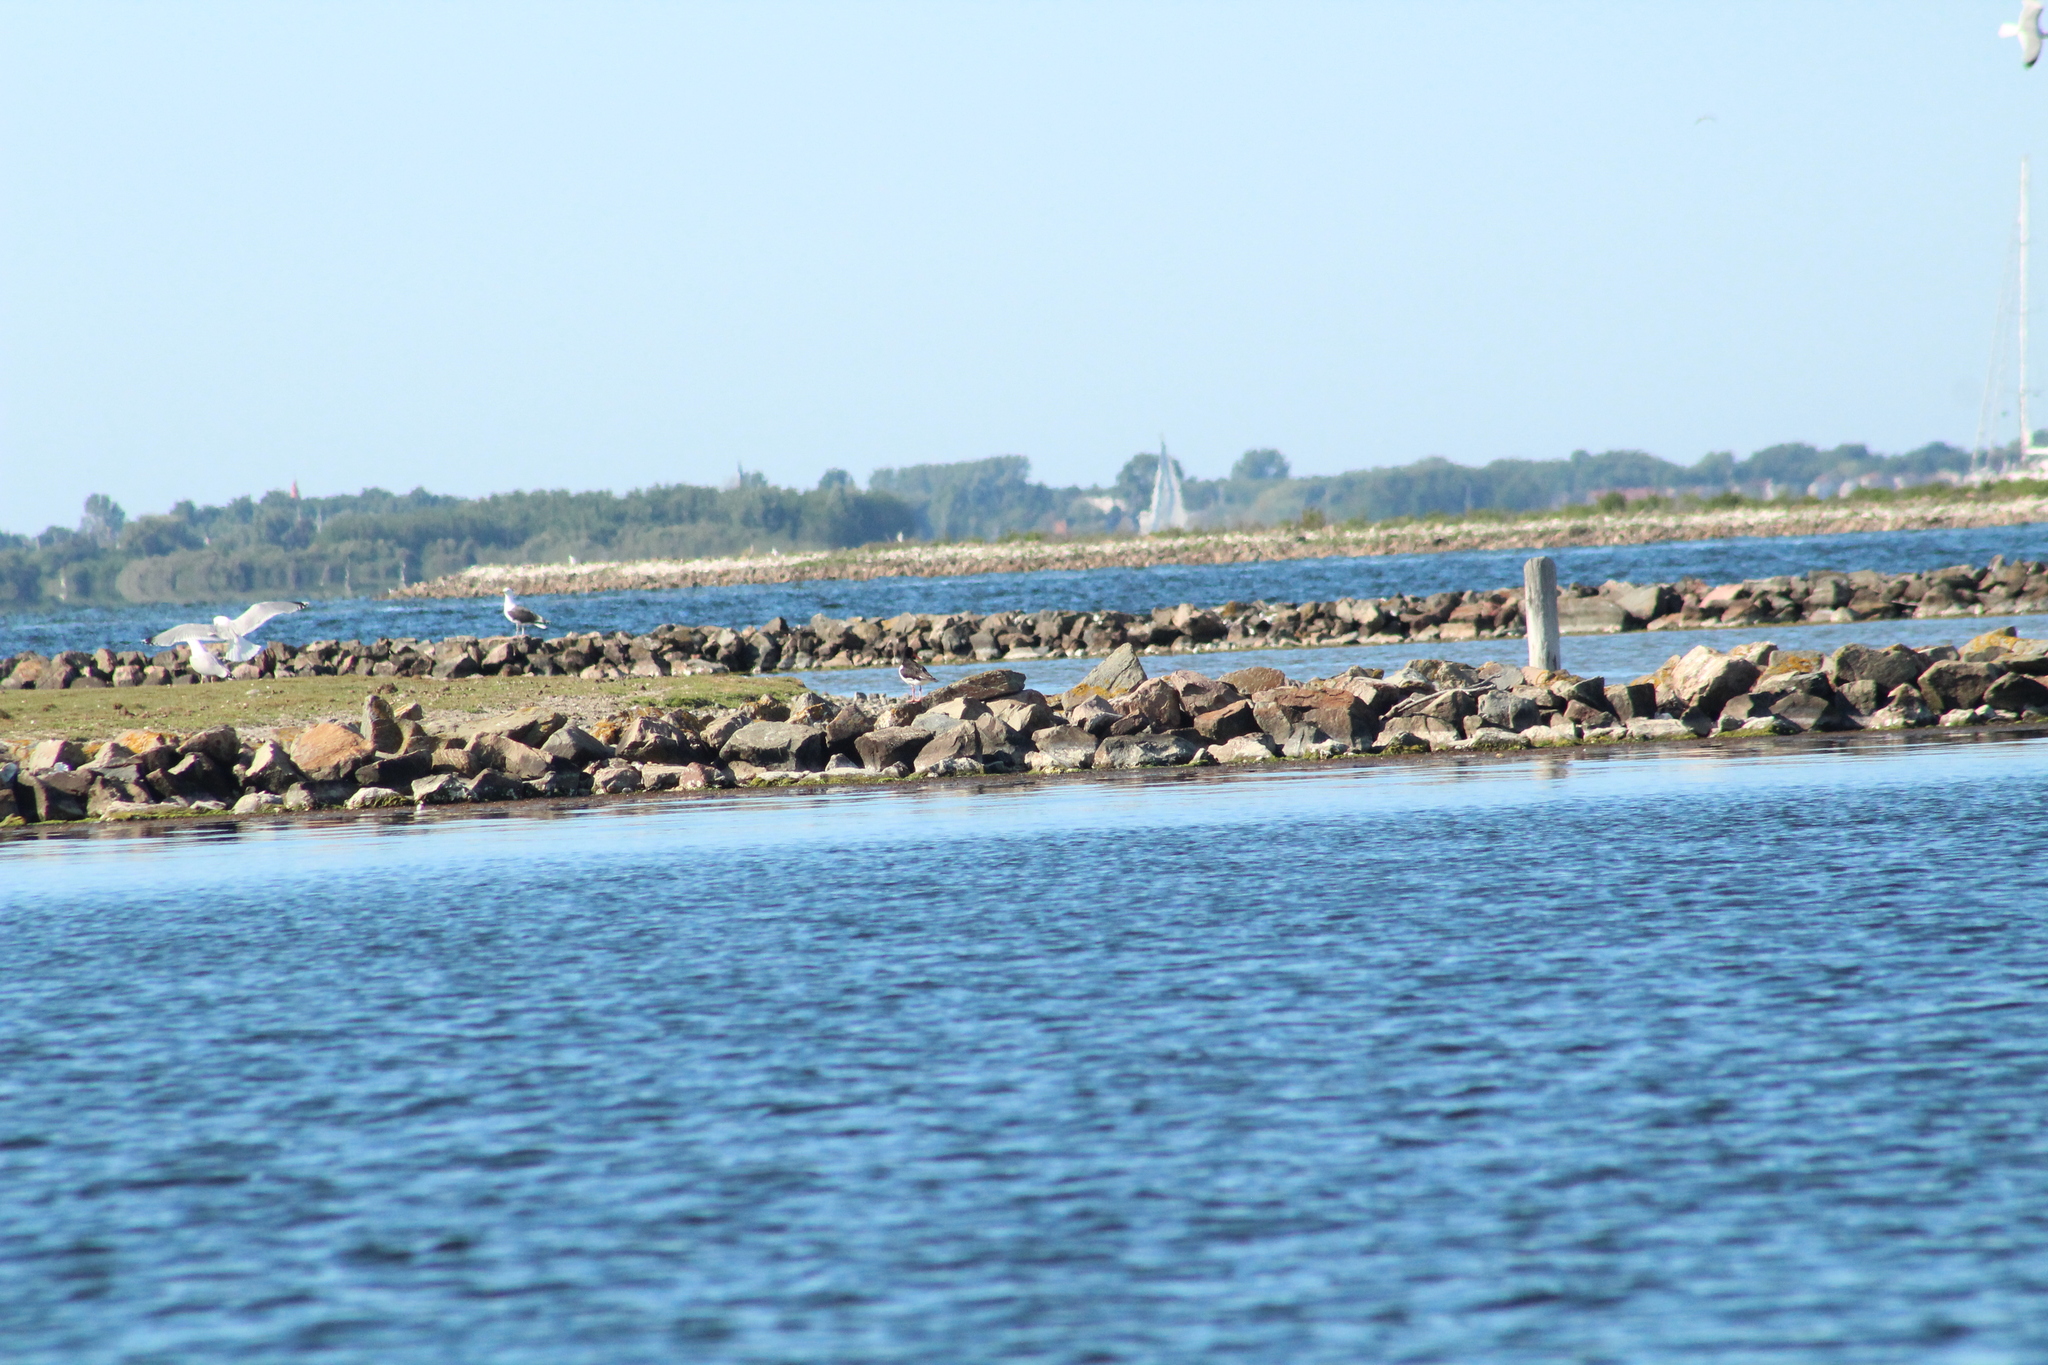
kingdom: Animalia
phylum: Chordata
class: Aves
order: Charadriiformes
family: Haematopodidae
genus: Haematopus
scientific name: Haematopus ostralegus
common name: Eurasian oystercatcher
